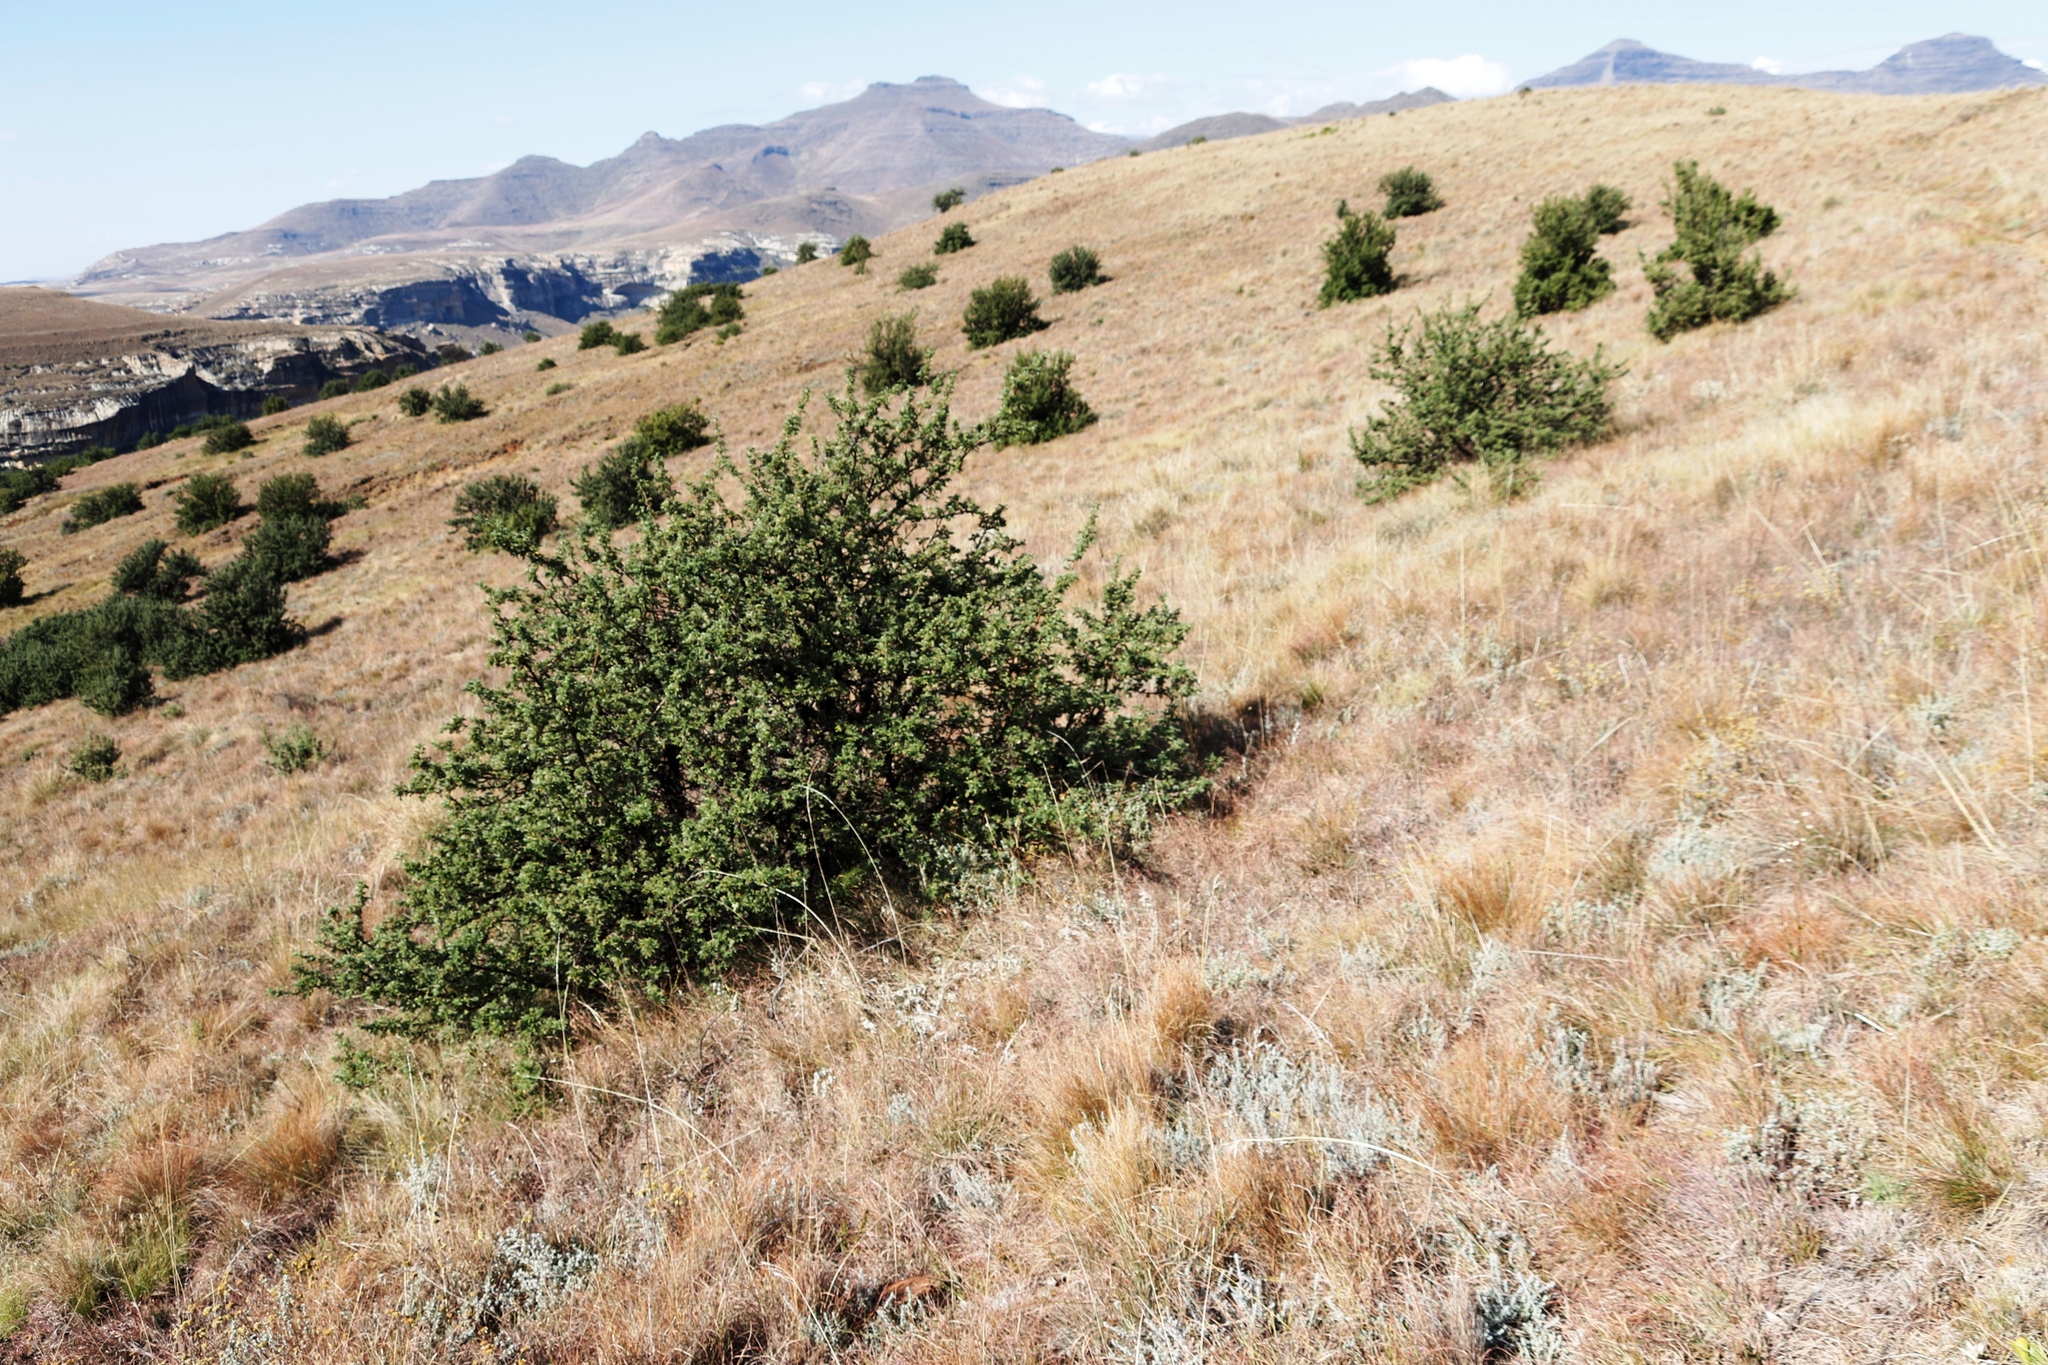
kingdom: Plantae
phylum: Tracheophyta
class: Magnoliopsida
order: Rosales
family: Rosaceae
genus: Leucosidea
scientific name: Leucosidea sericea
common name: Oldwood
